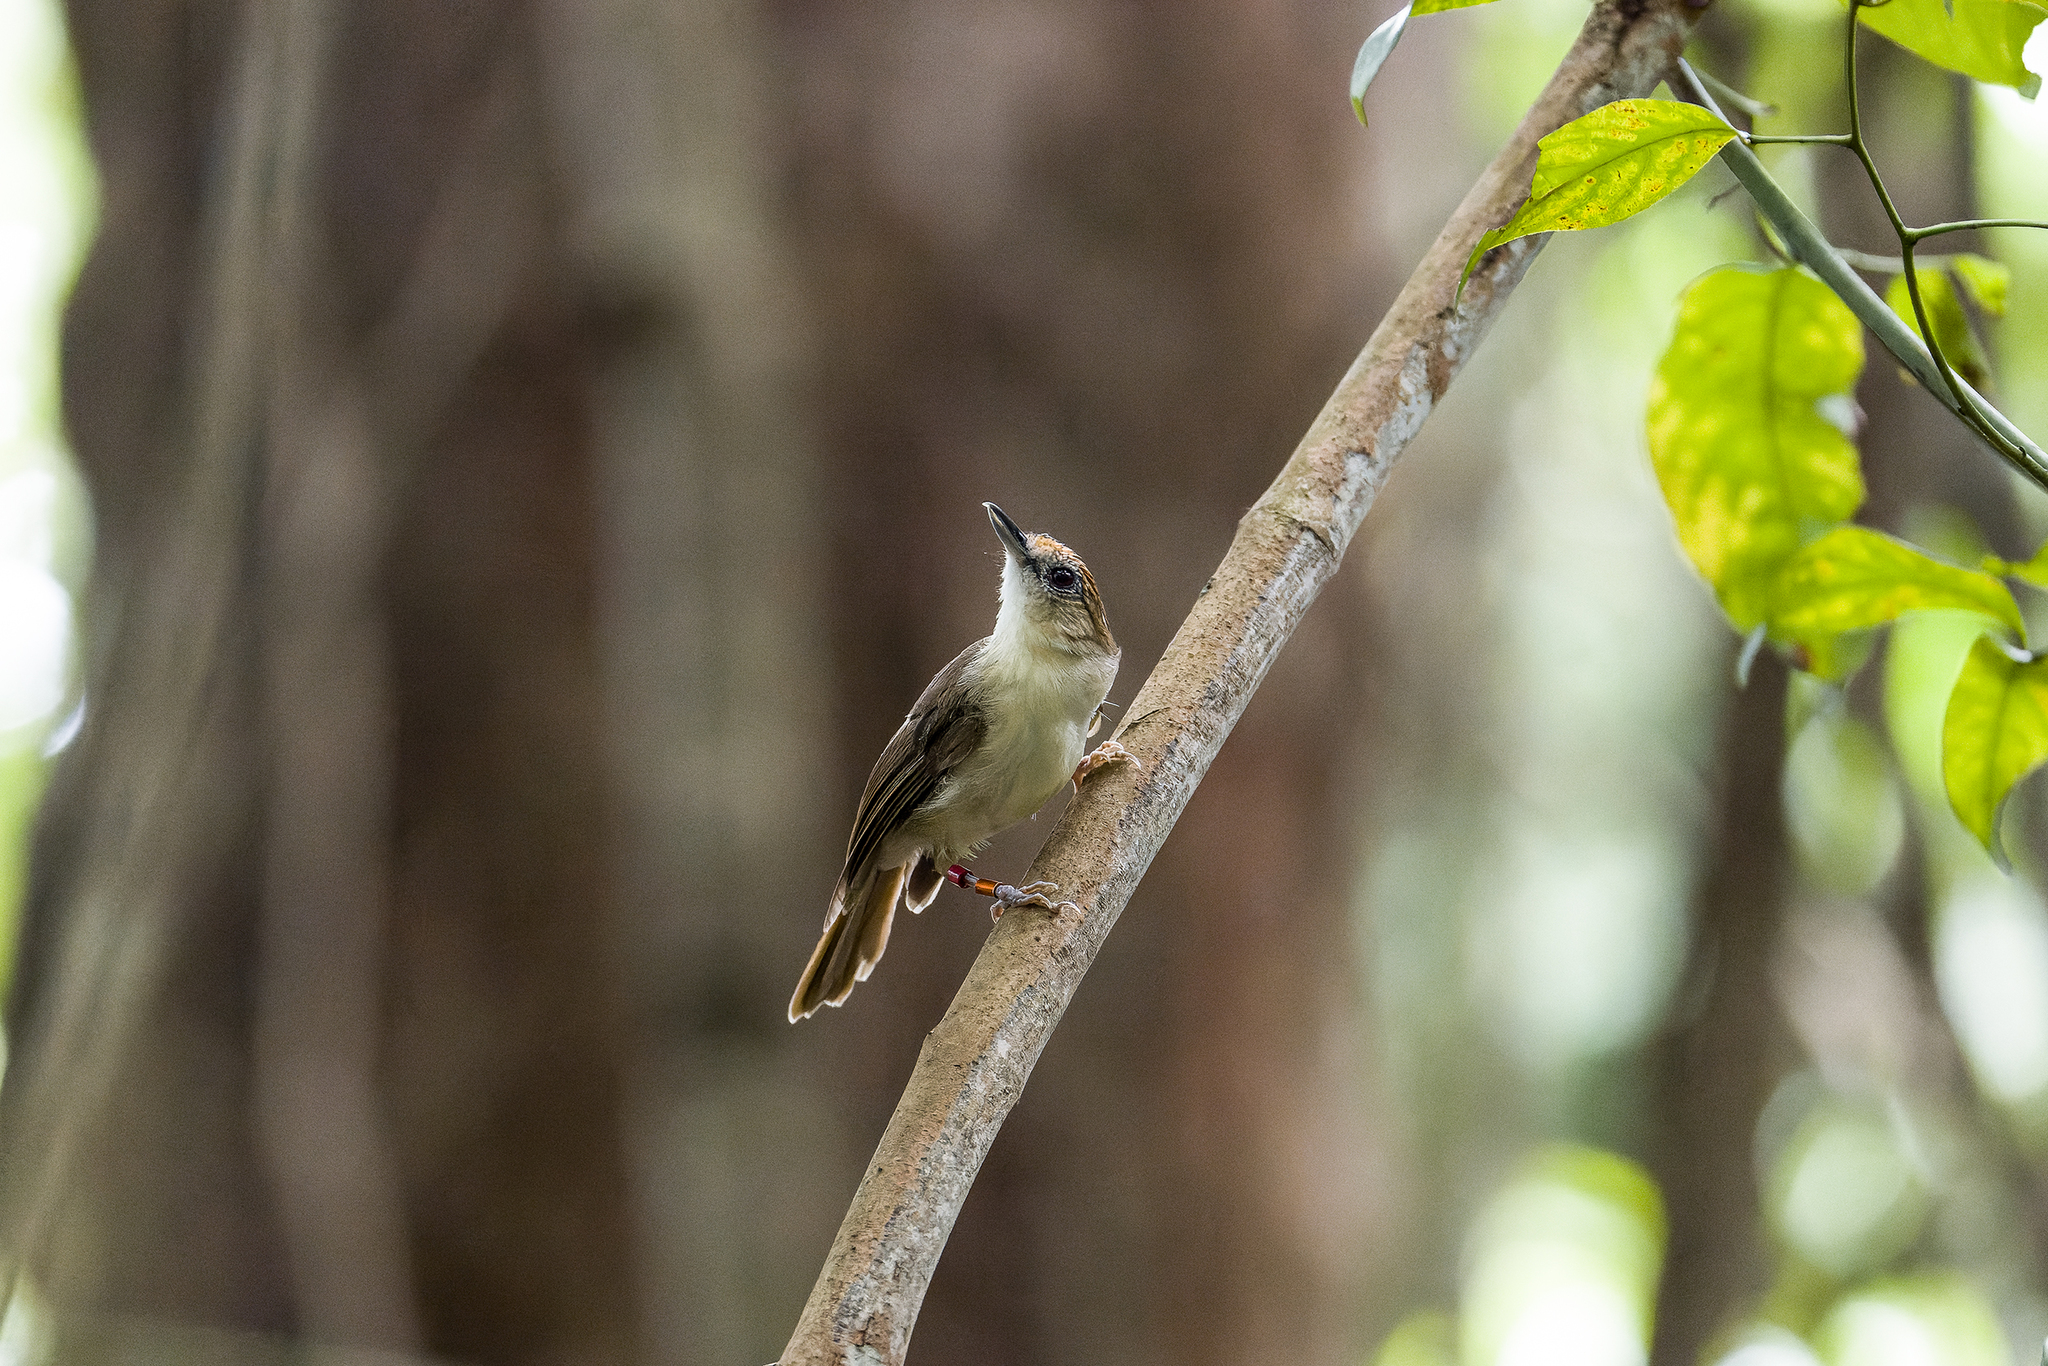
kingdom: Animalia
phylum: Chordata
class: Aves
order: Passeriformes
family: Pellorneidae
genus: Malacopteron
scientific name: Malacopteron cinereum
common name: Scaly-crowned babbler
